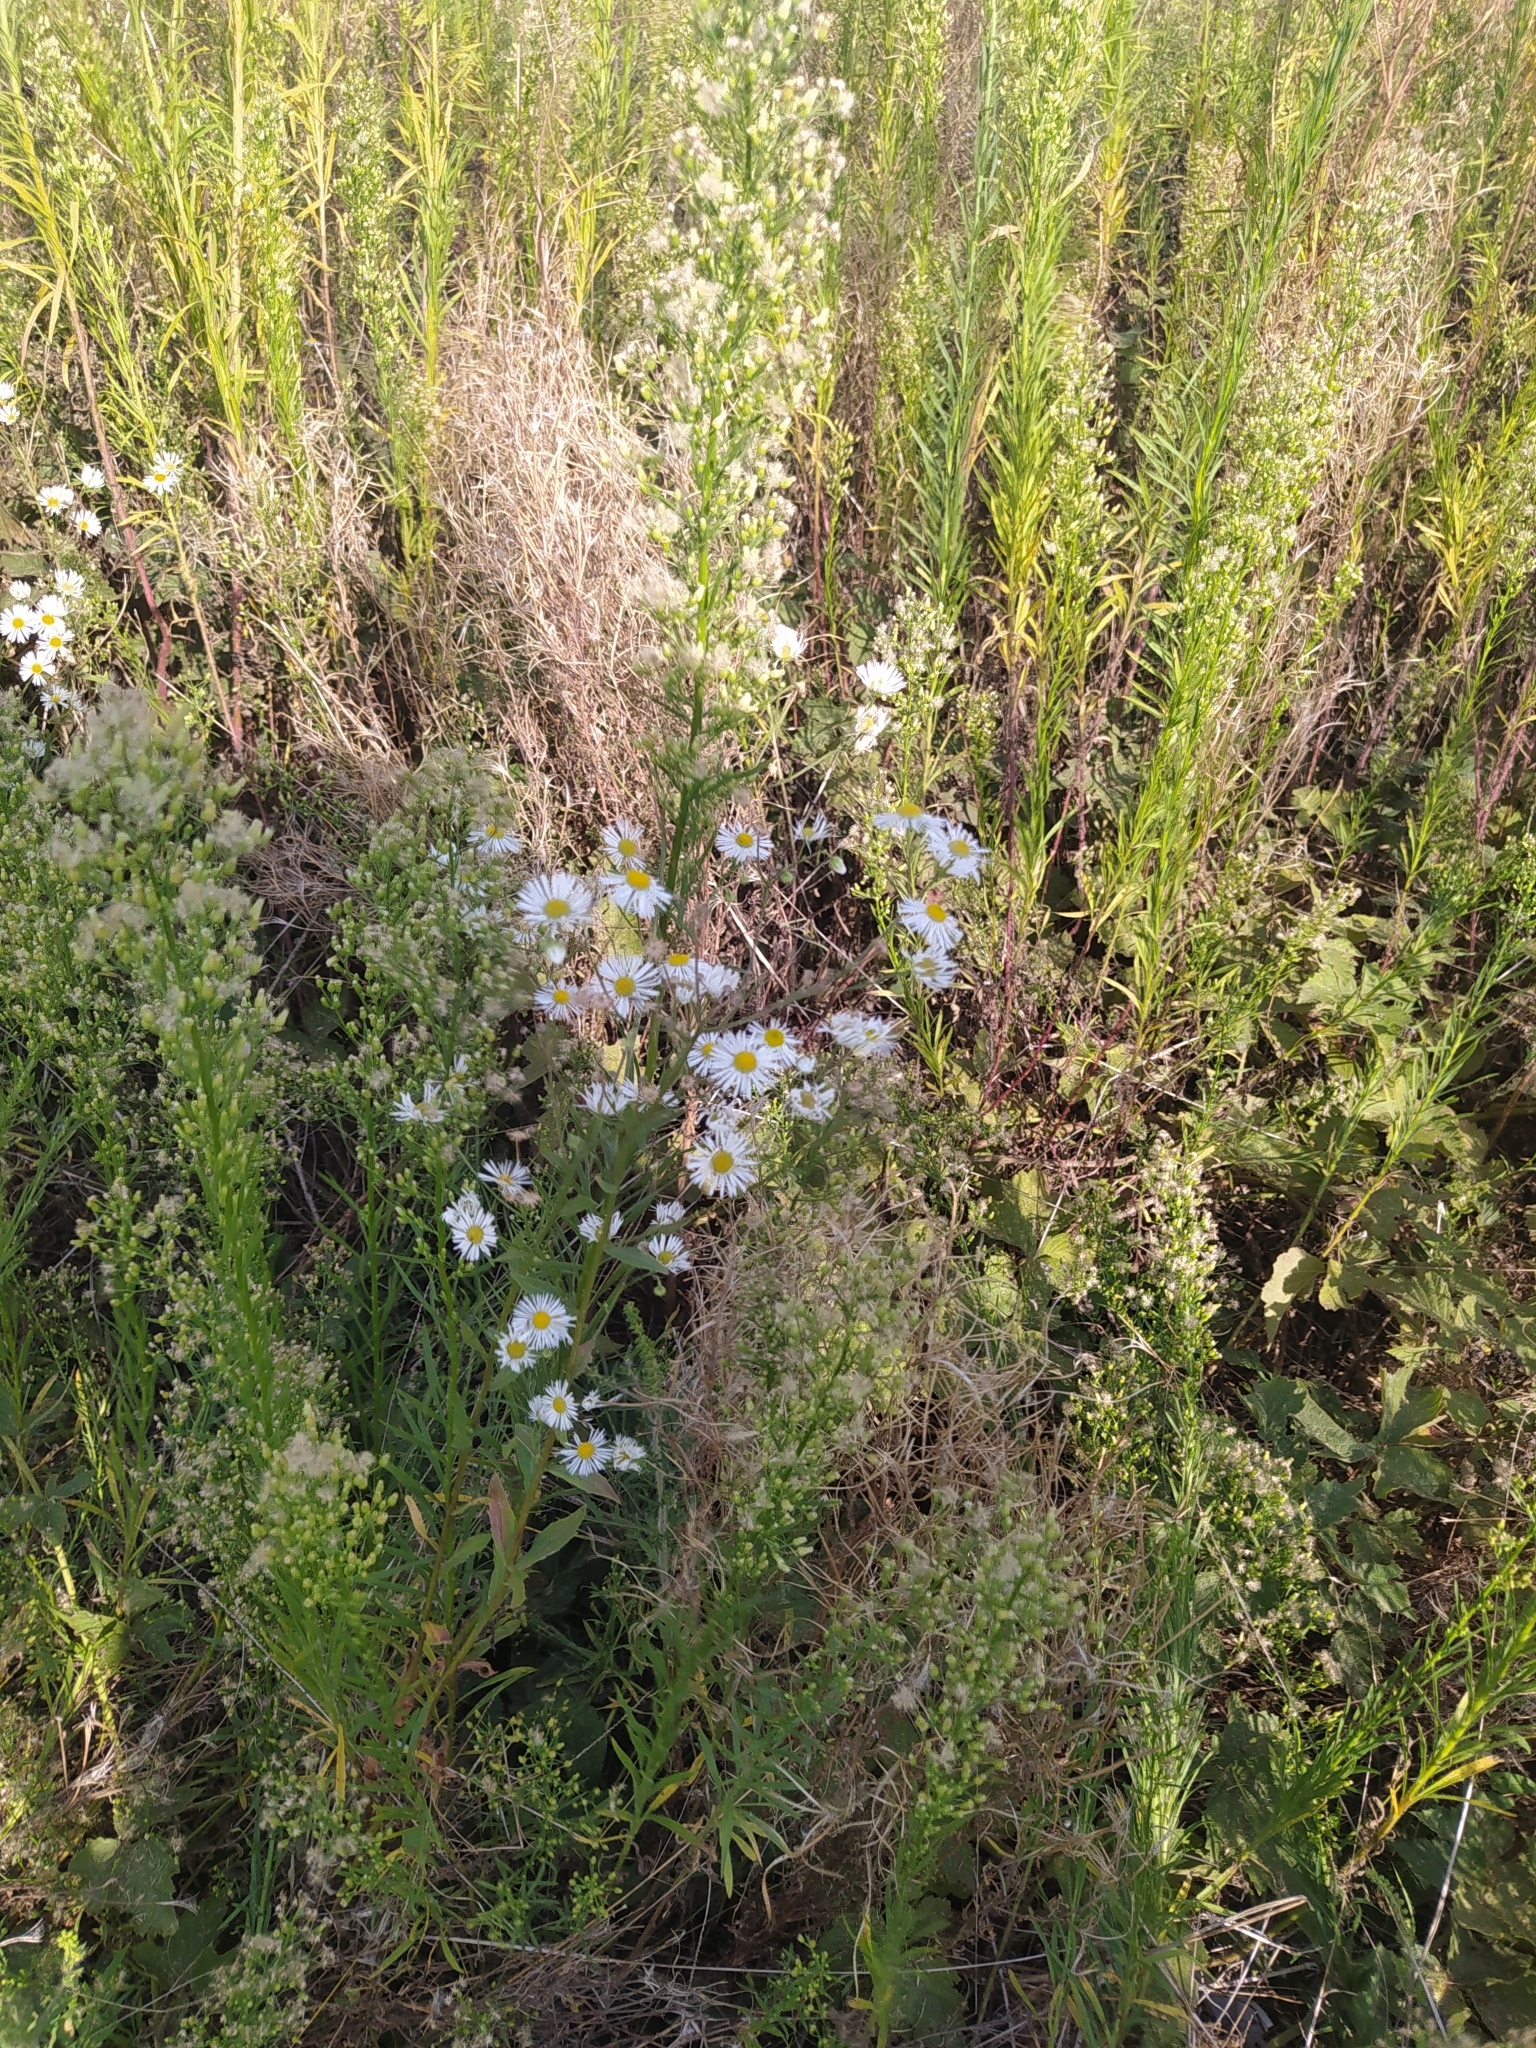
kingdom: Plantae
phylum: Tracheophyta
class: Magnoliopsida
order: Asterales
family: Asteraceae
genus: Erigeron
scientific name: Erigeron annuus
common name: Tall fleabane
